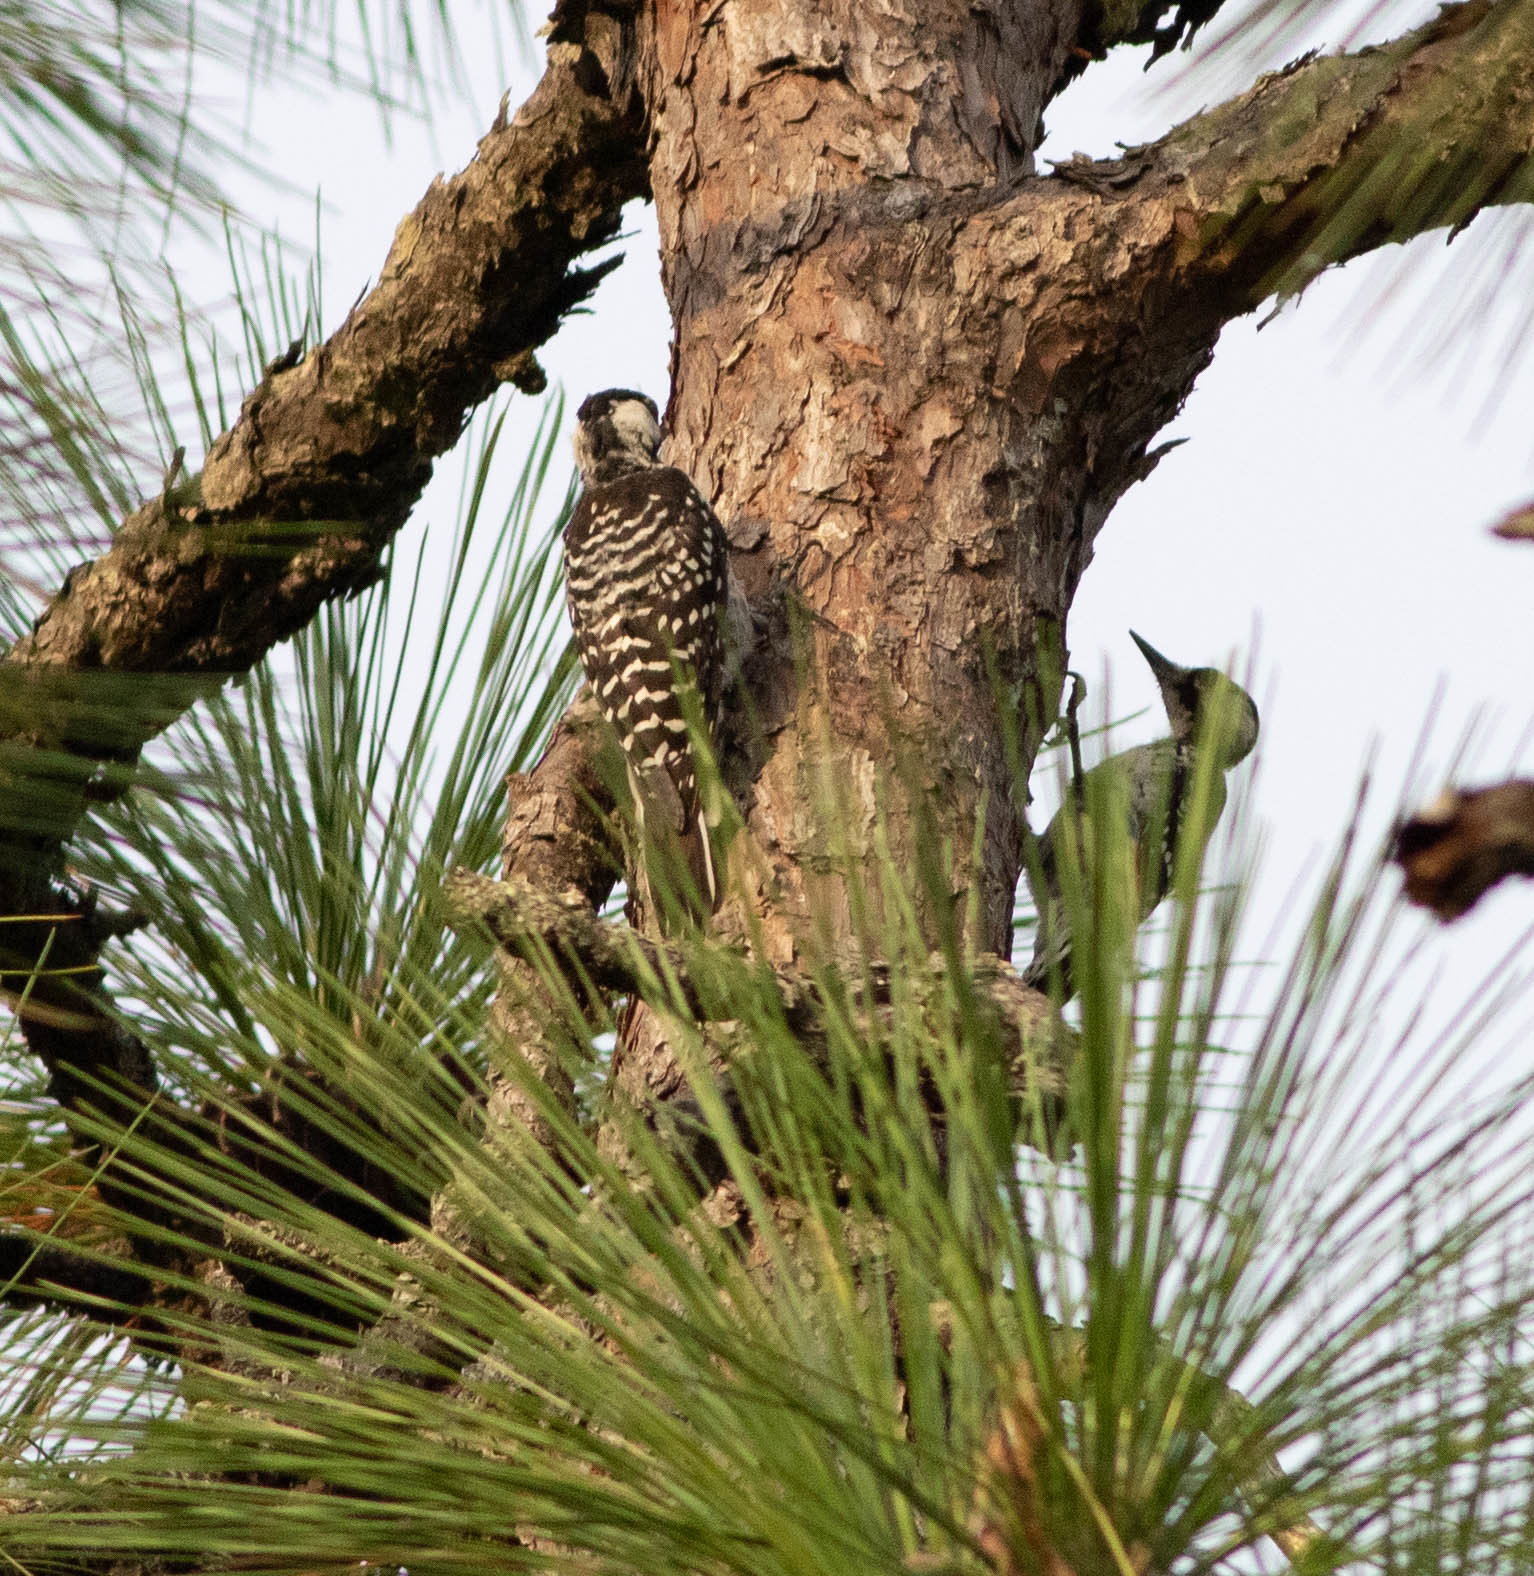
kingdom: Animalia
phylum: Chordata
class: Aves
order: Piciformes
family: Picidae
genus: Leuconotopicus
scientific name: Leuconotopicus borealis
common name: Red-cockaded woodpecker
